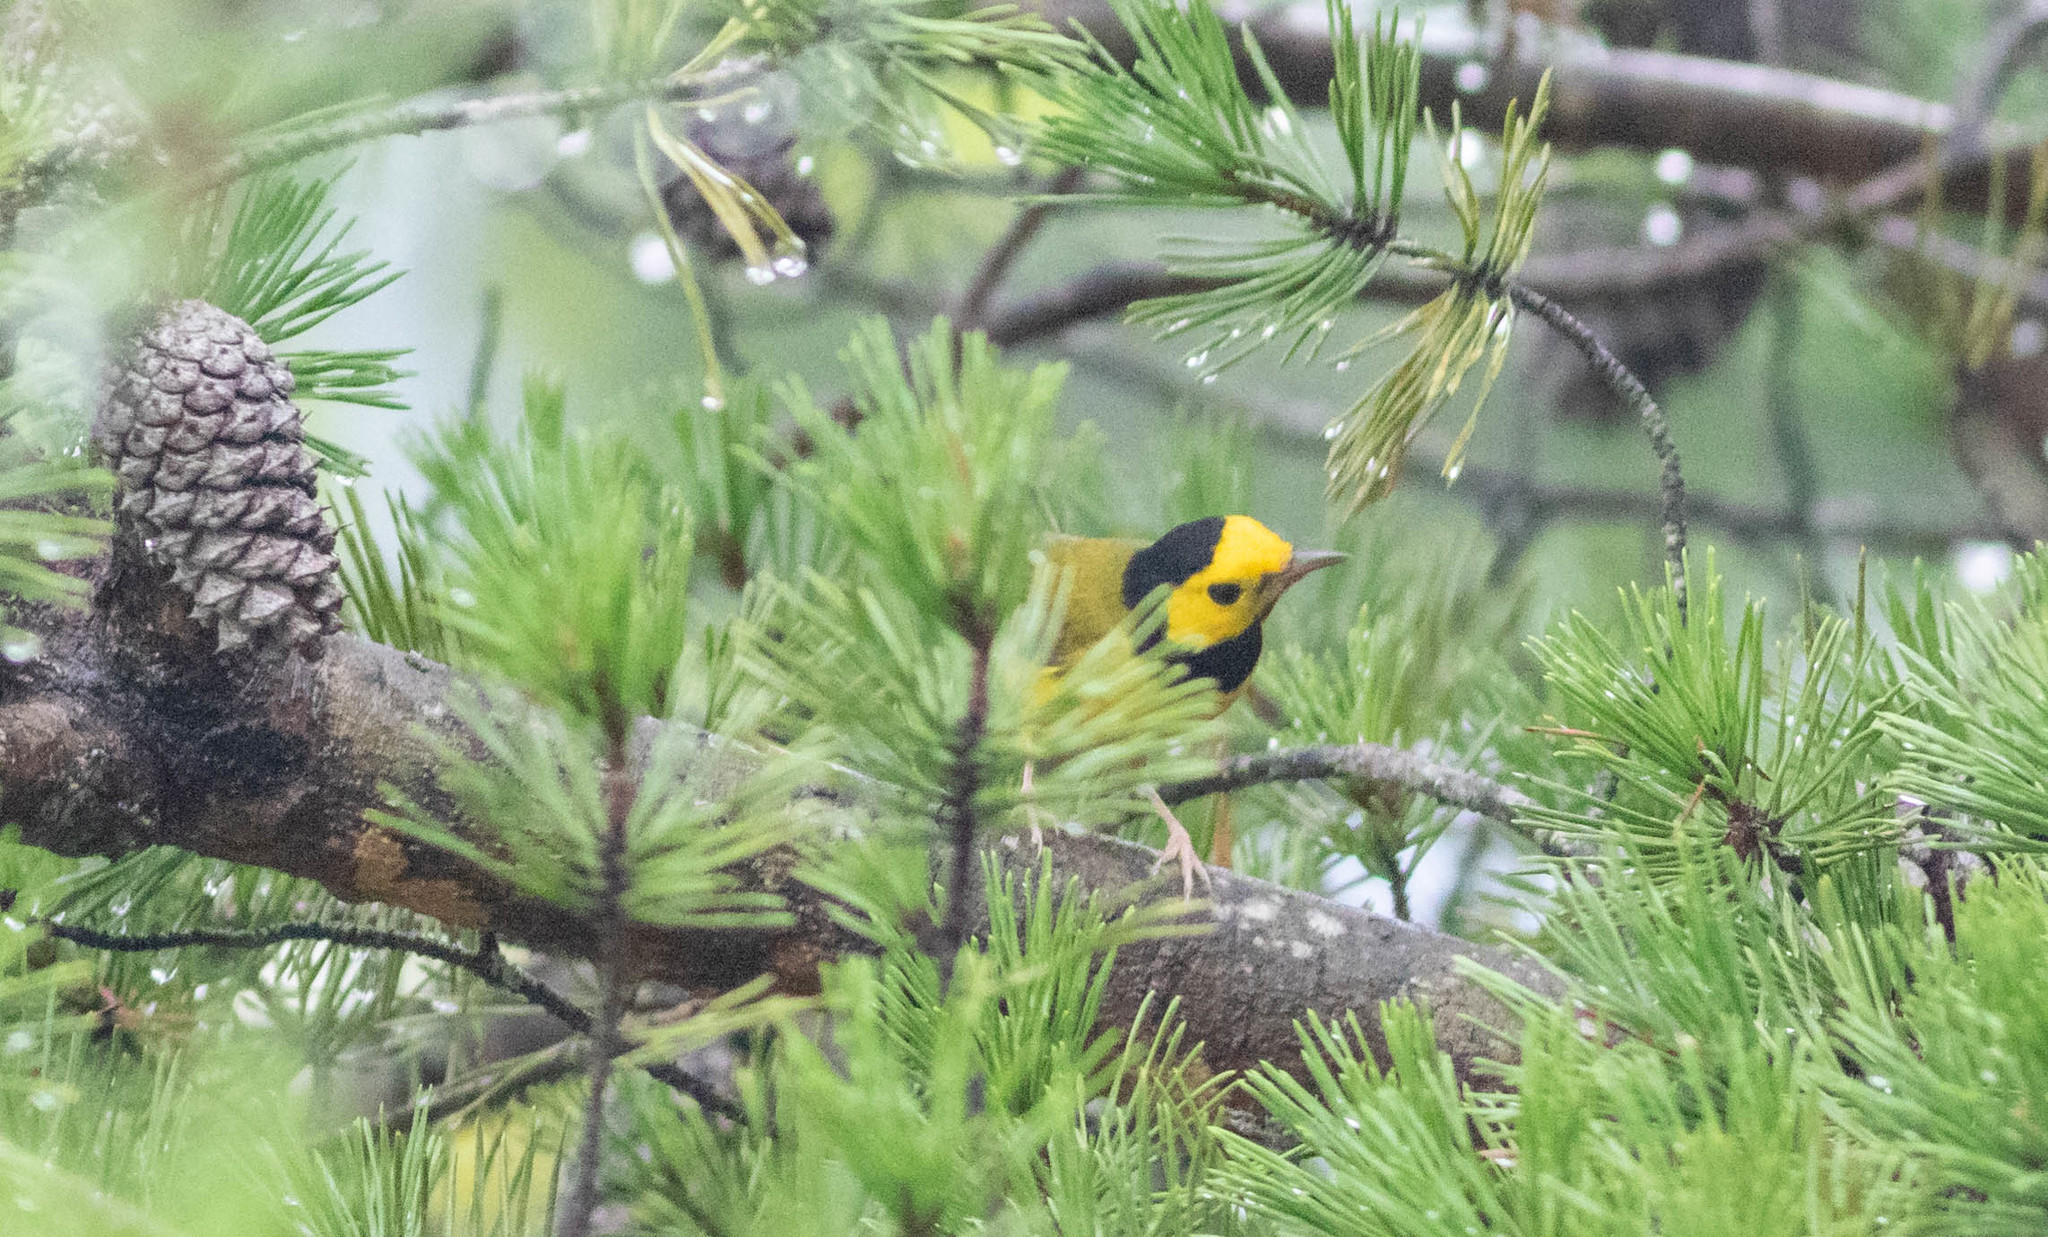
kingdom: Animalia
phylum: Chordata
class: Aves
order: Passeriformes
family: Parulidae
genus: Setophaga
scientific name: Setophaga citrina
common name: Hooded warbler
